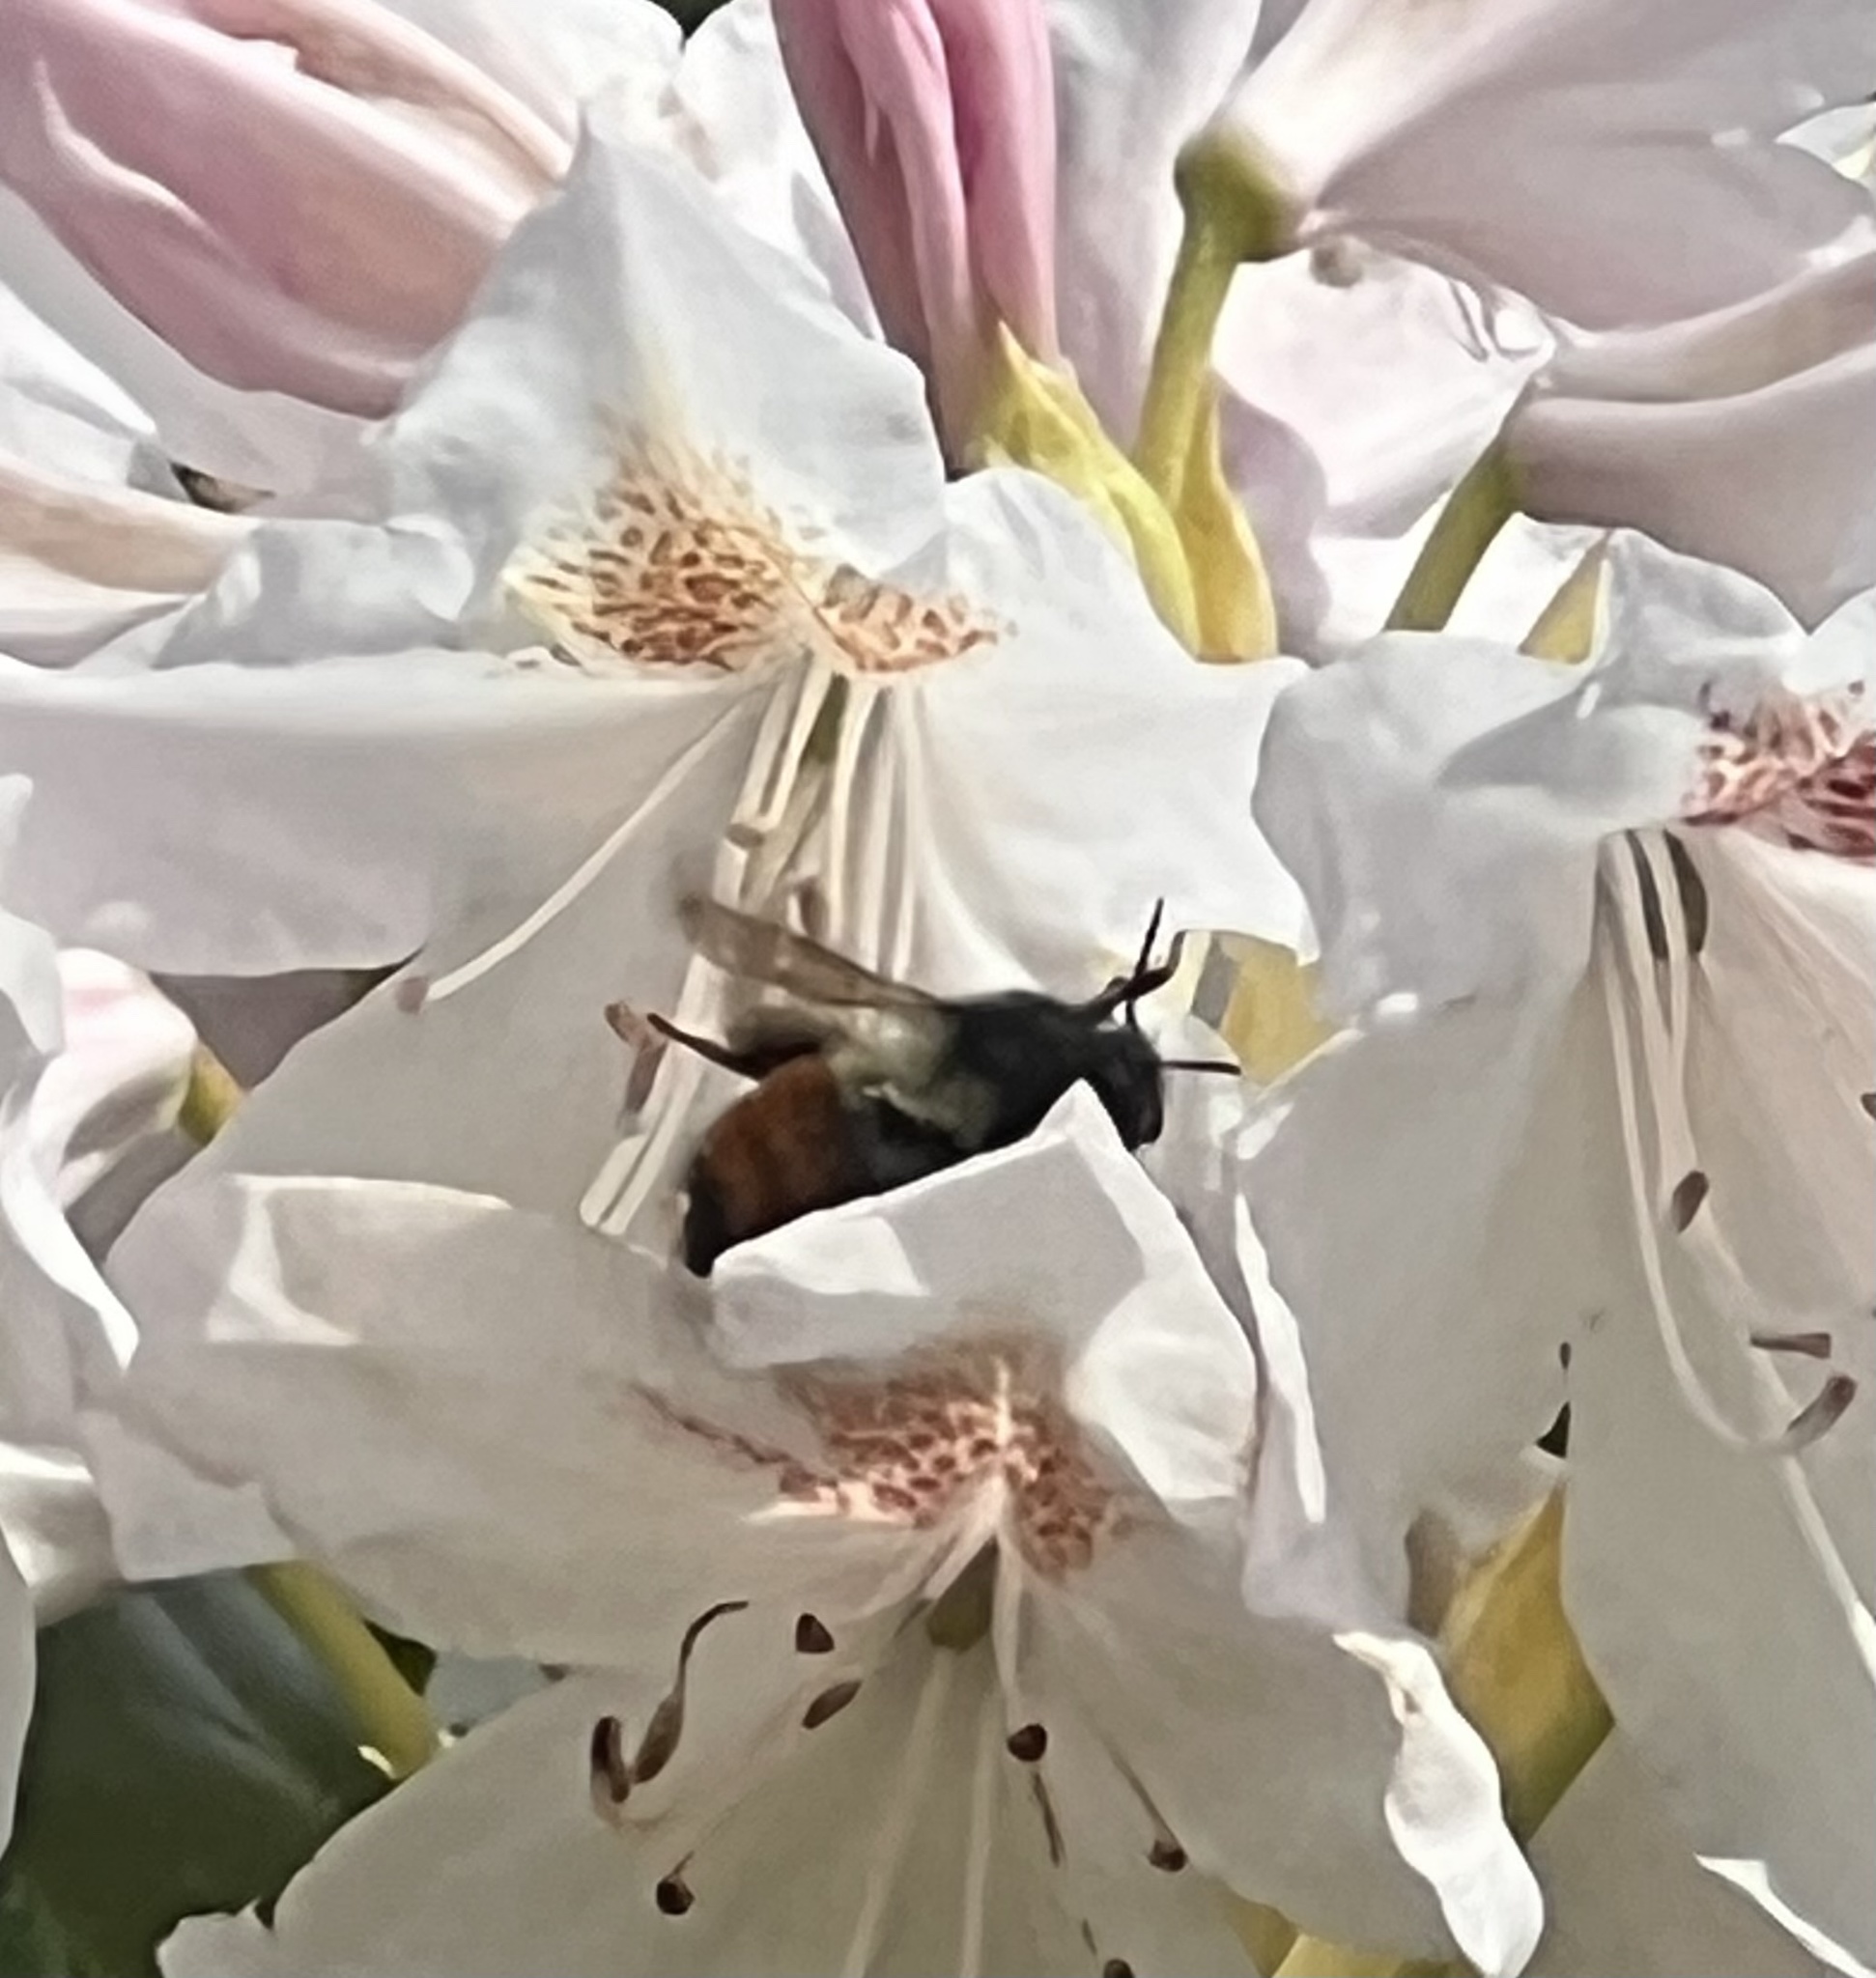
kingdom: Animalia
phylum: Arthropoda
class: Insecta
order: Hymenoptera
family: Apidae
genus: Bombus
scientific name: Bombus melanopygus
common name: Black tail bumble bee
